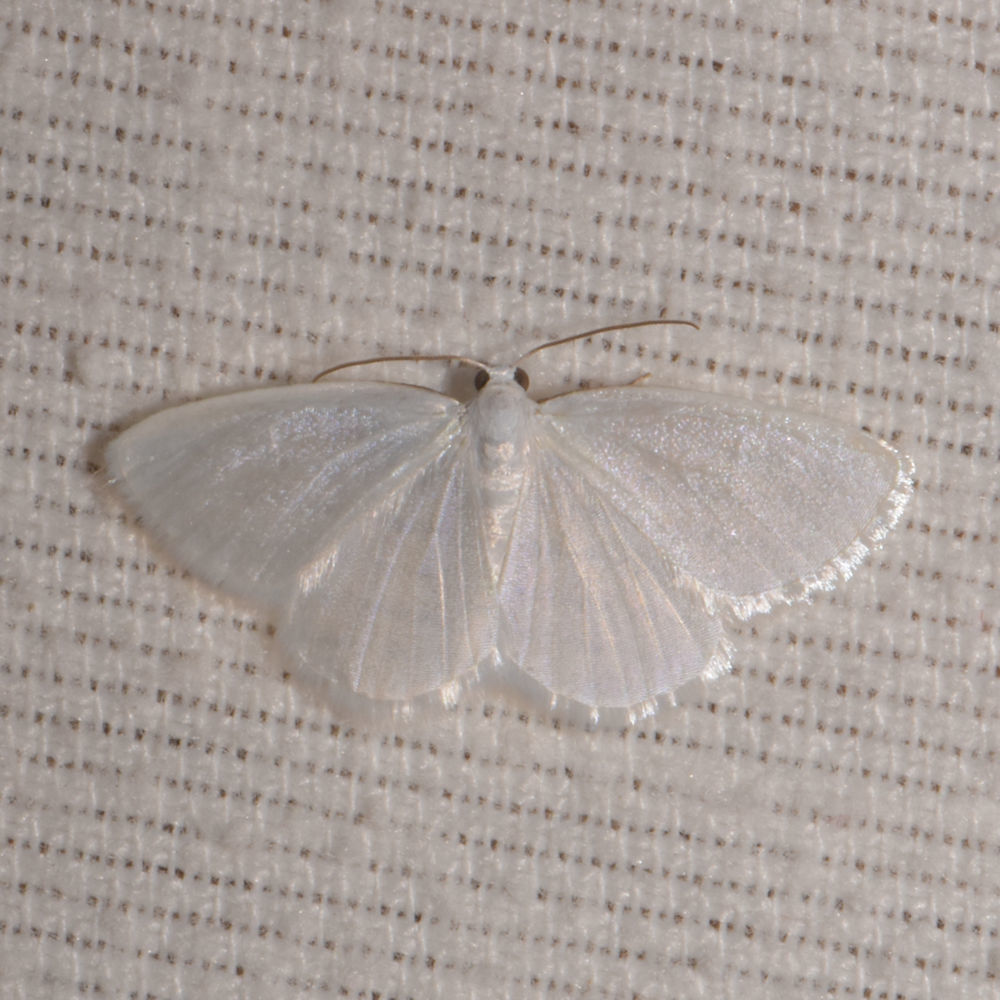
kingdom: Animalia
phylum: Arthropoda
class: Insecta
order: Lepidoptera
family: Geometridae
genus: Lomographa
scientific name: Lomographa vestaliata
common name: White spring moth
